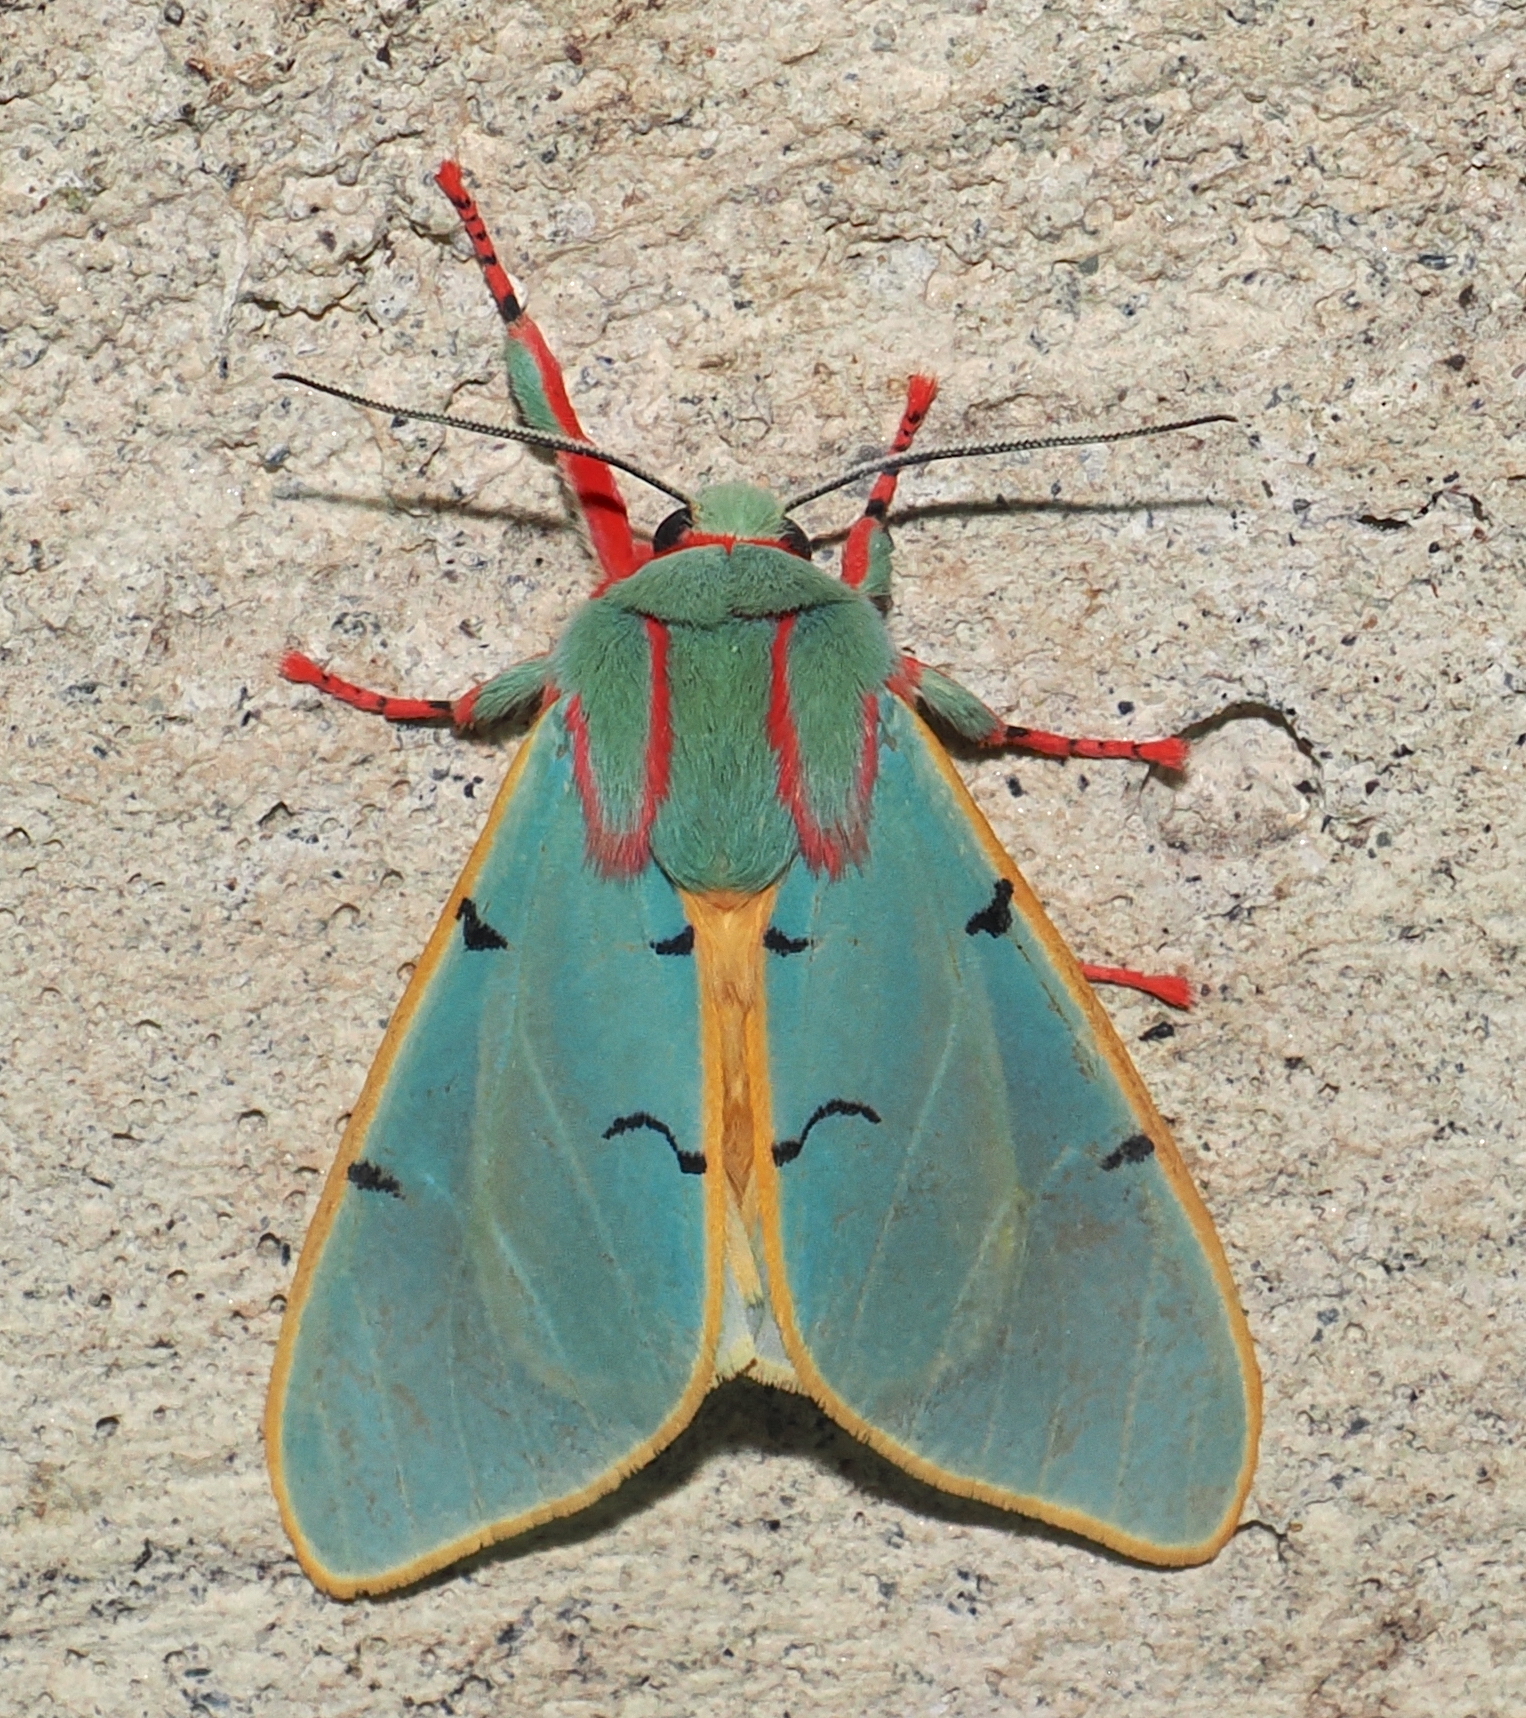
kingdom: Animalia
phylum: Arthropoda
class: Insecta
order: Lepidoptera
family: Erebidae
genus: Chlorhoda
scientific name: Chlorhoda viridis
